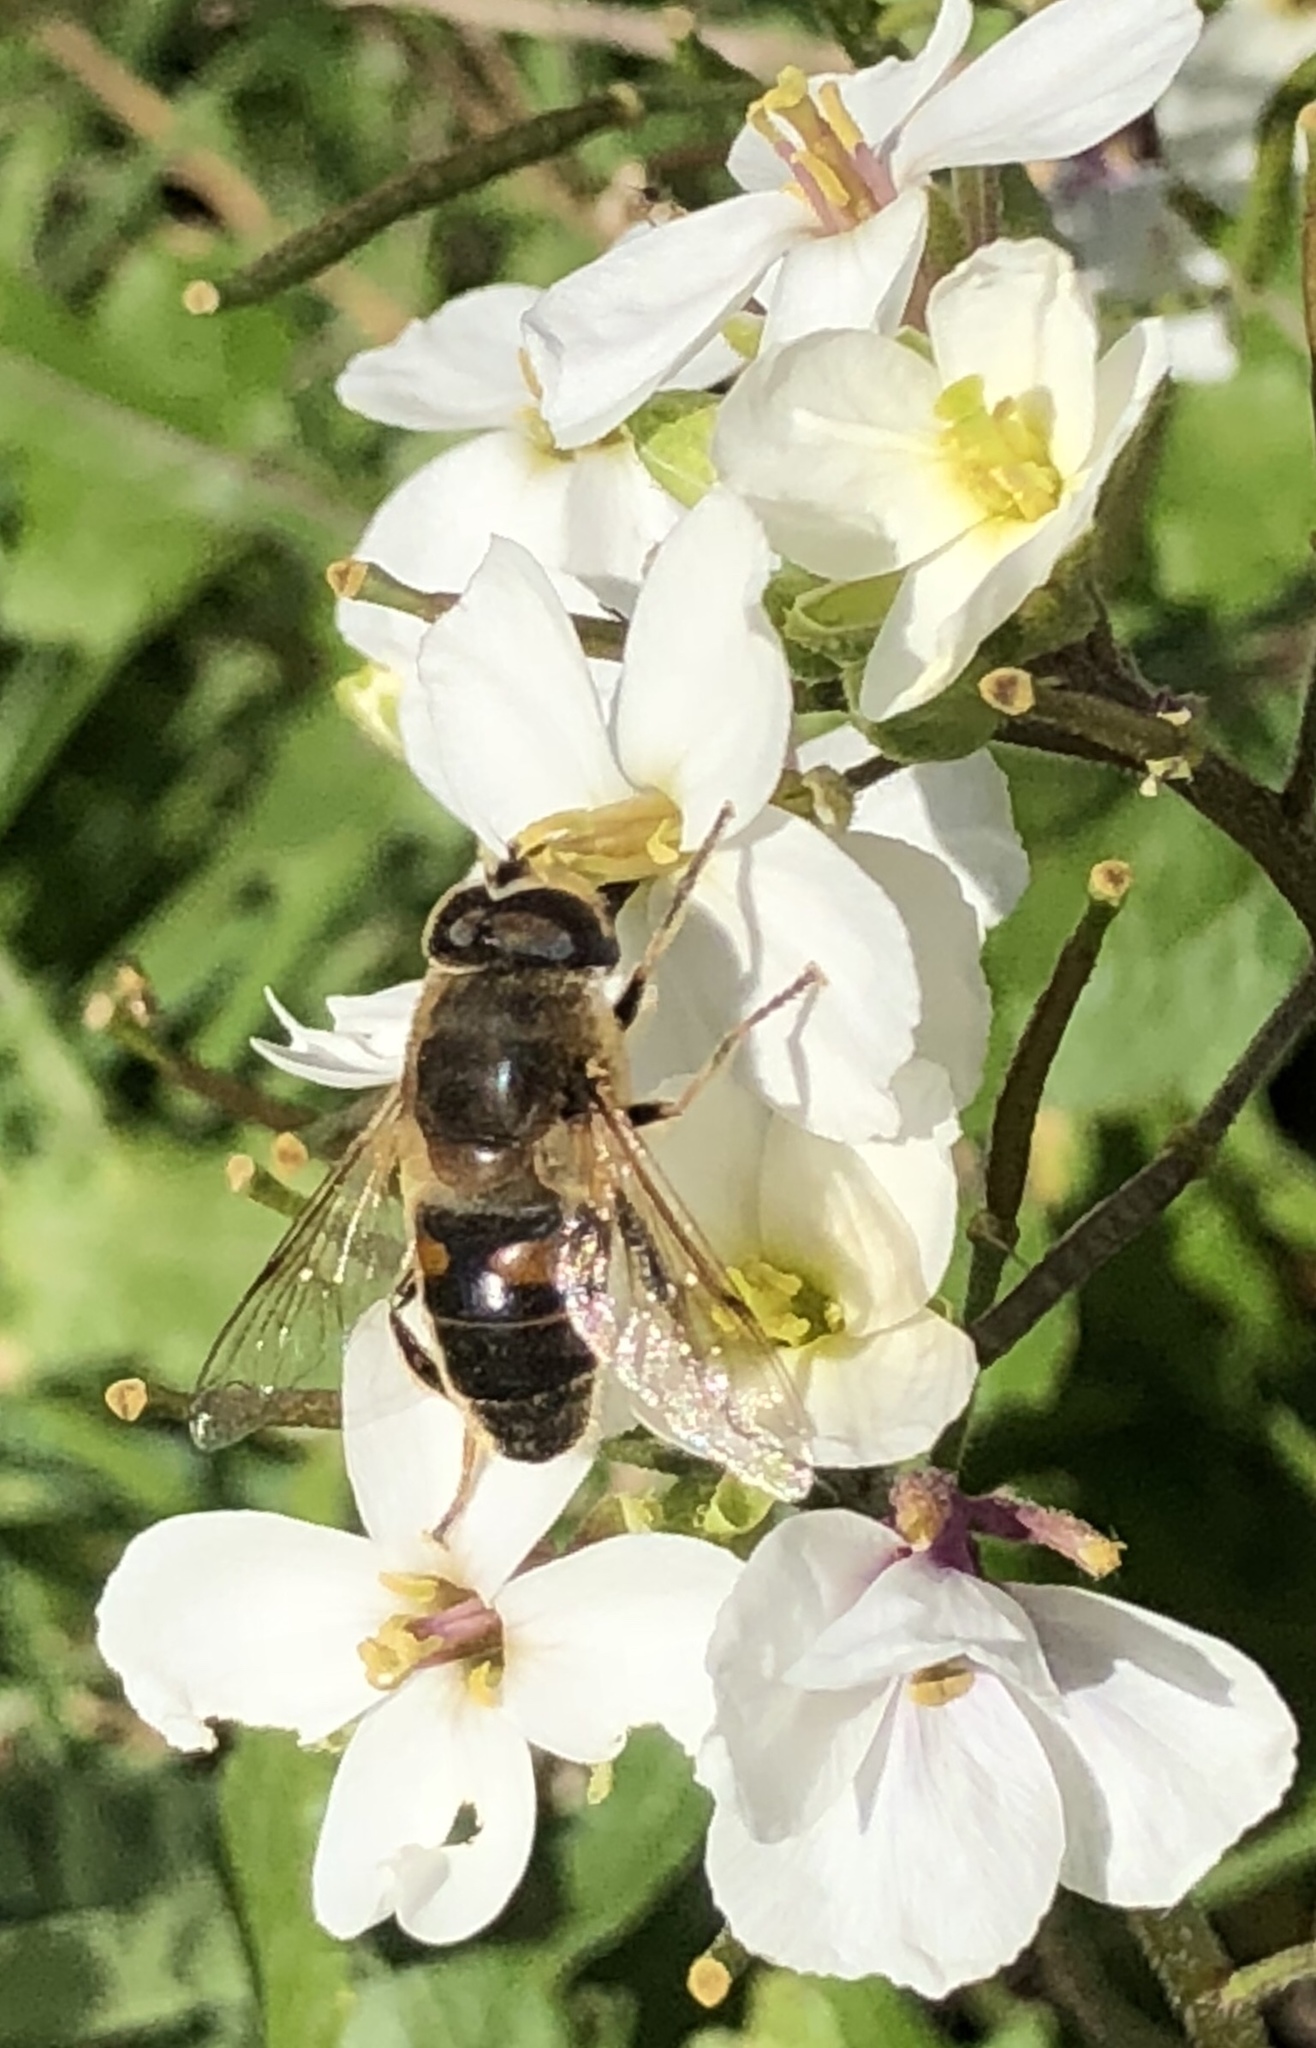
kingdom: Animalia
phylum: Arthropoda
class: Insecta
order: Diptera
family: Syrphidae
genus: Eristalis
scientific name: Eristalis tenax
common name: Drone fly
